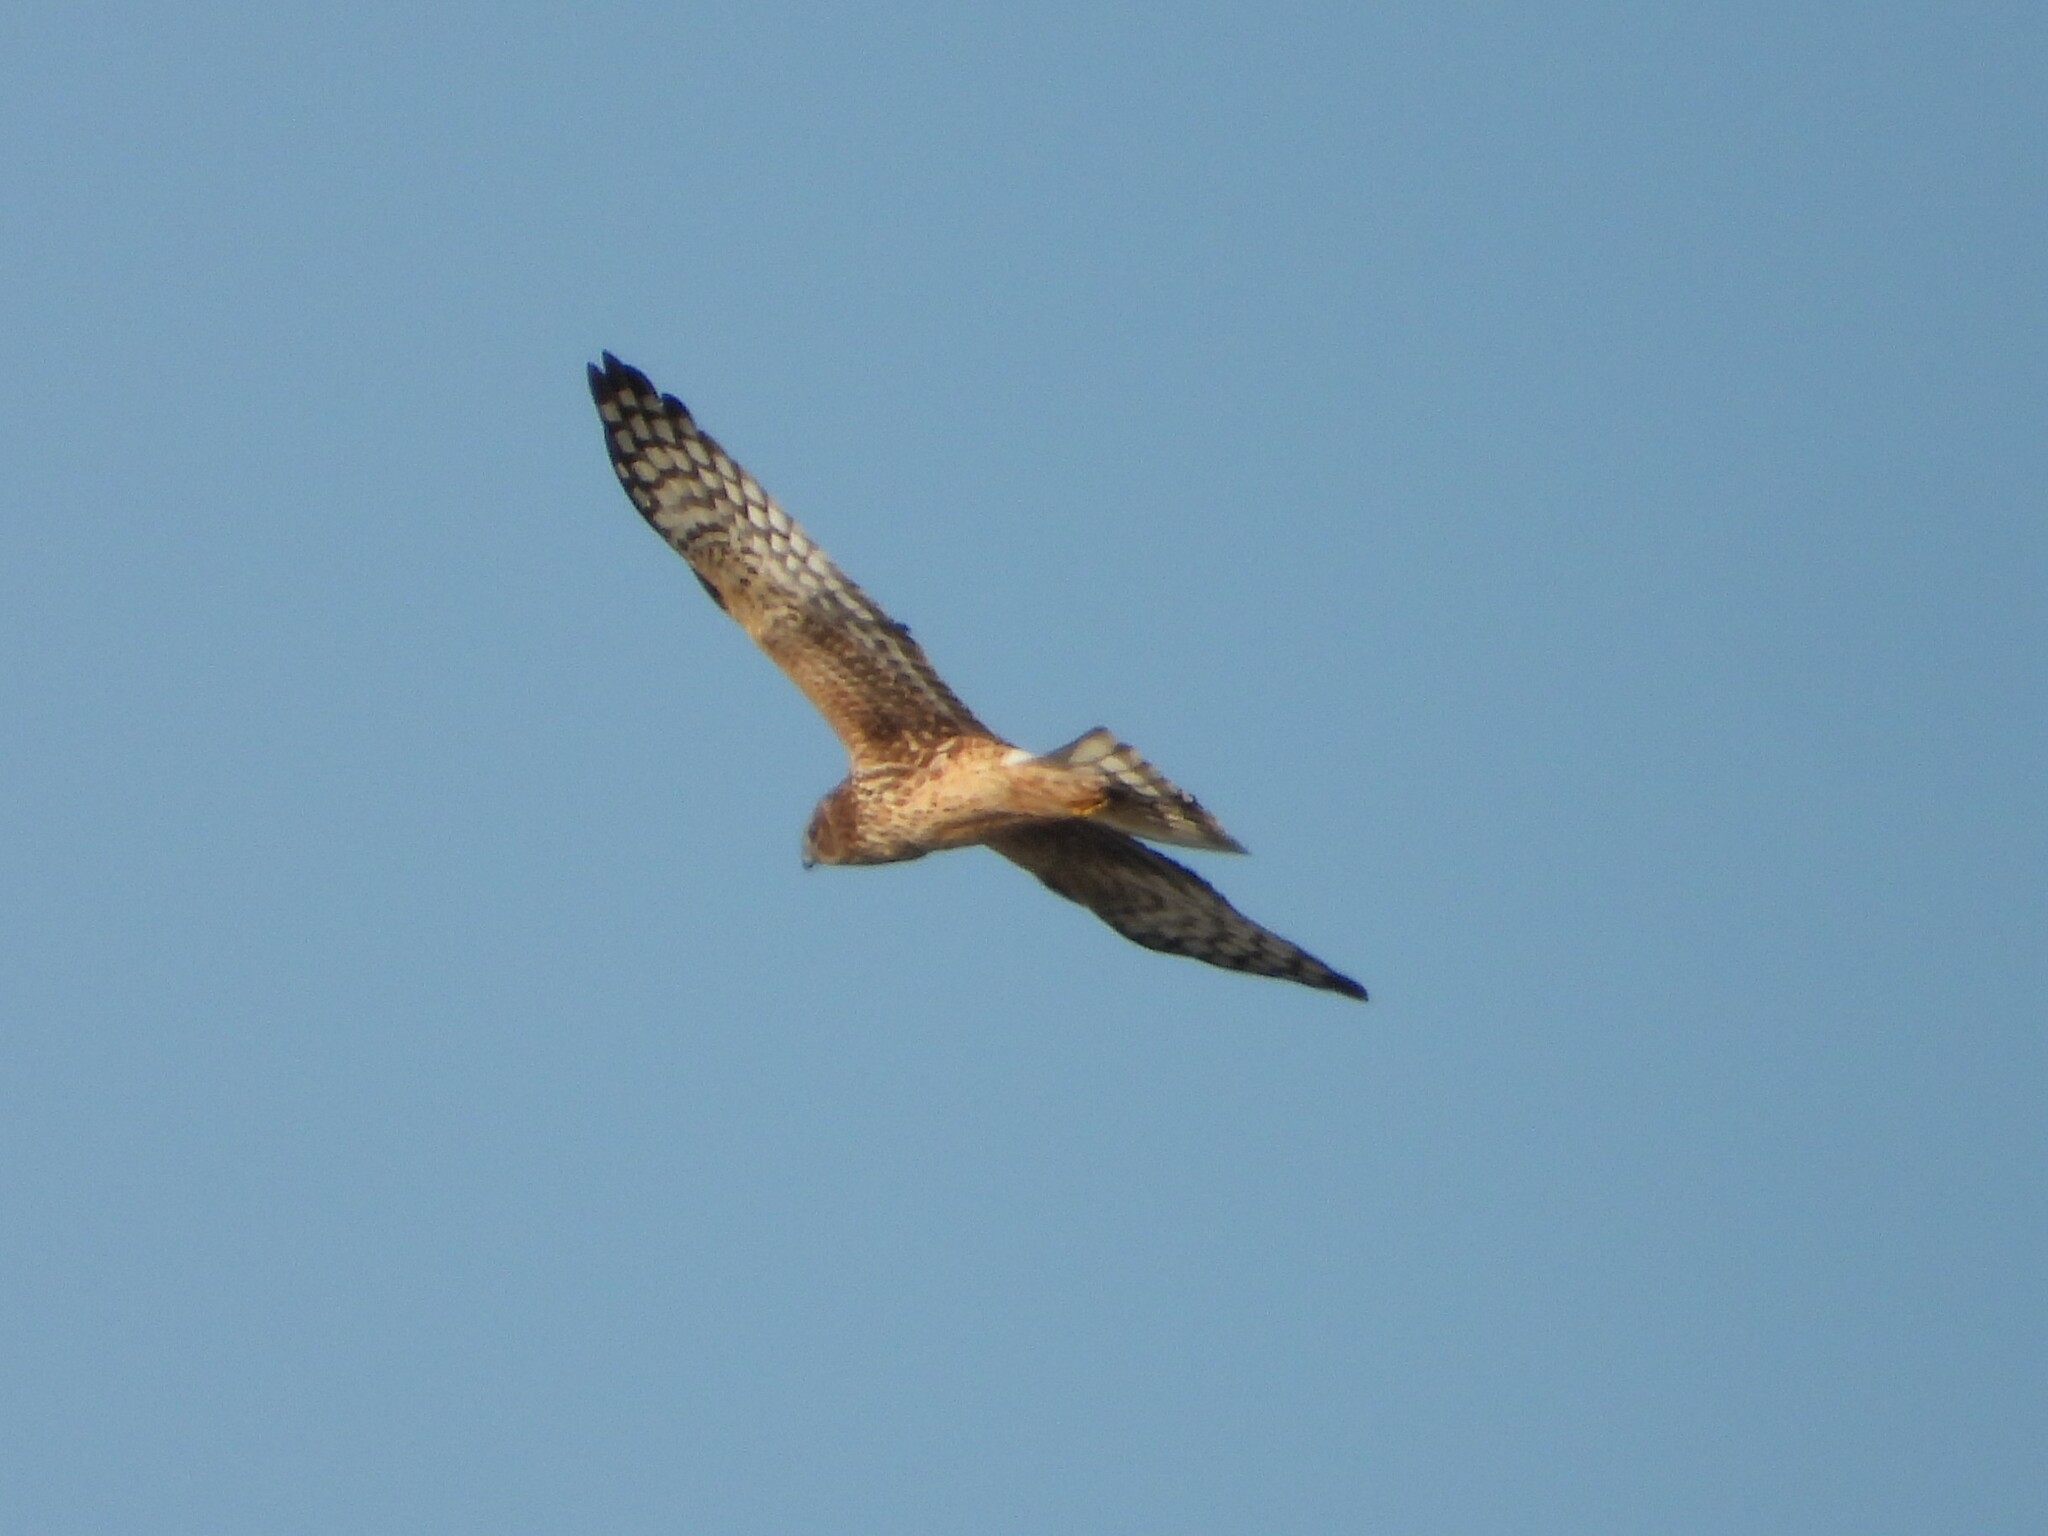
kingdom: Animalia
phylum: Chordata
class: Aves
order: Accipitriformes
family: Accipitridae
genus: Circus
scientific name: Circus cyaneus
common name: Hen harrier
